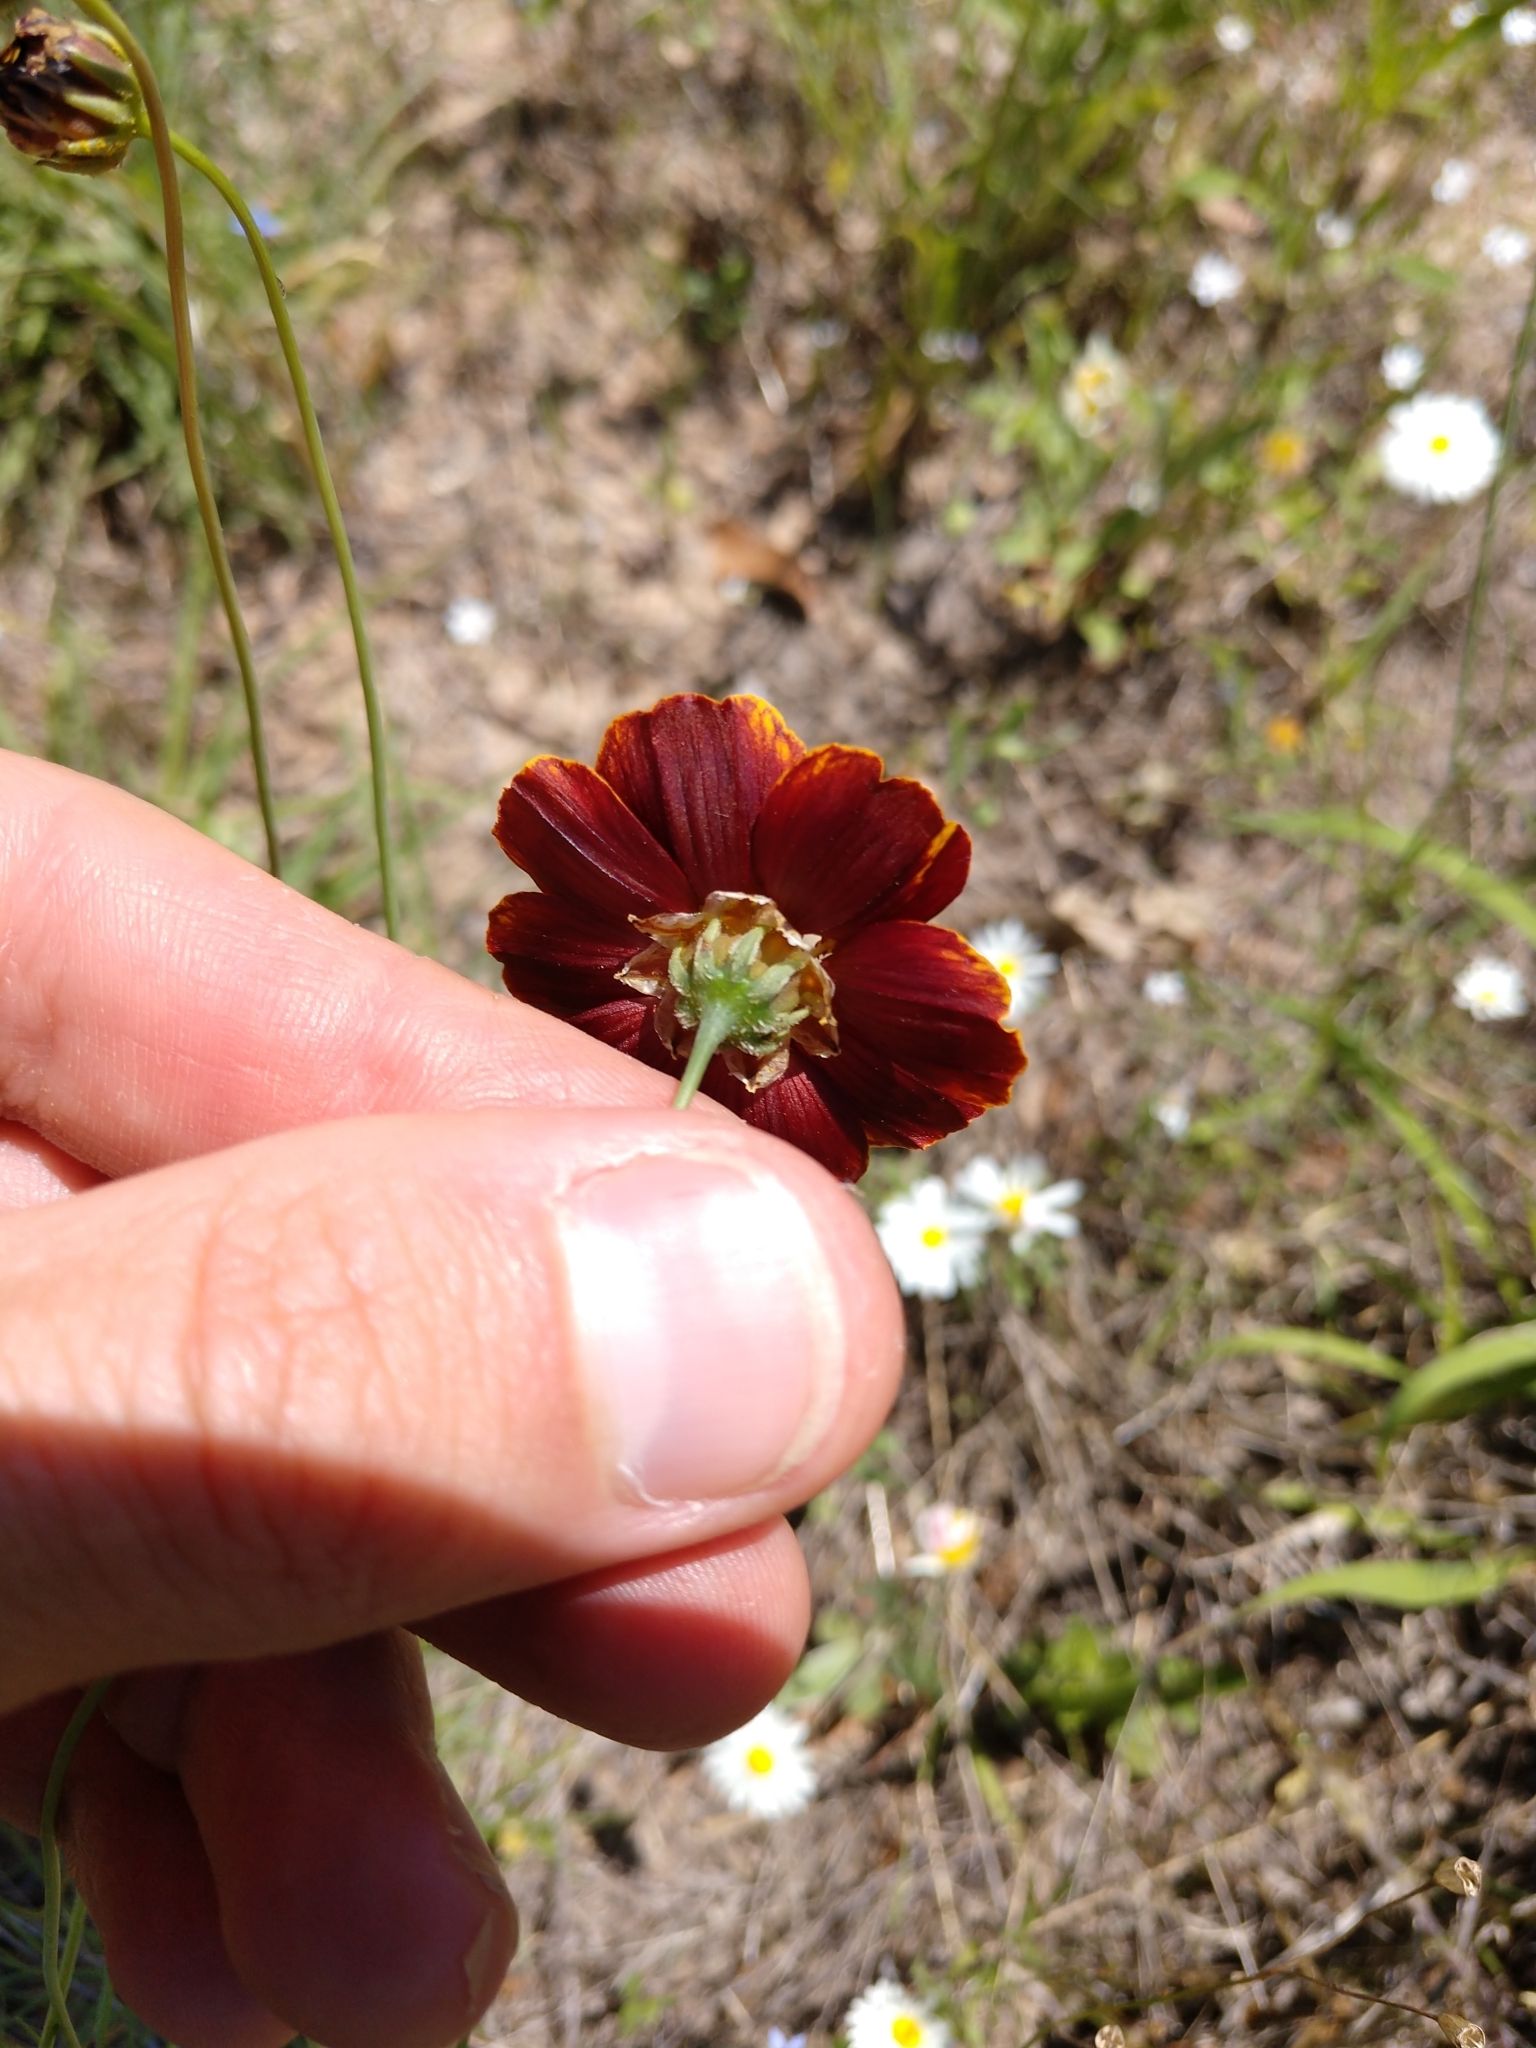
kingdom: Plantae
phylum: Tracheophyta
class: Magnoliopsida
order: Asterales
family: Asteraceae
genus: Thelesperma
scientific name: Thelesperma burridgeanum
